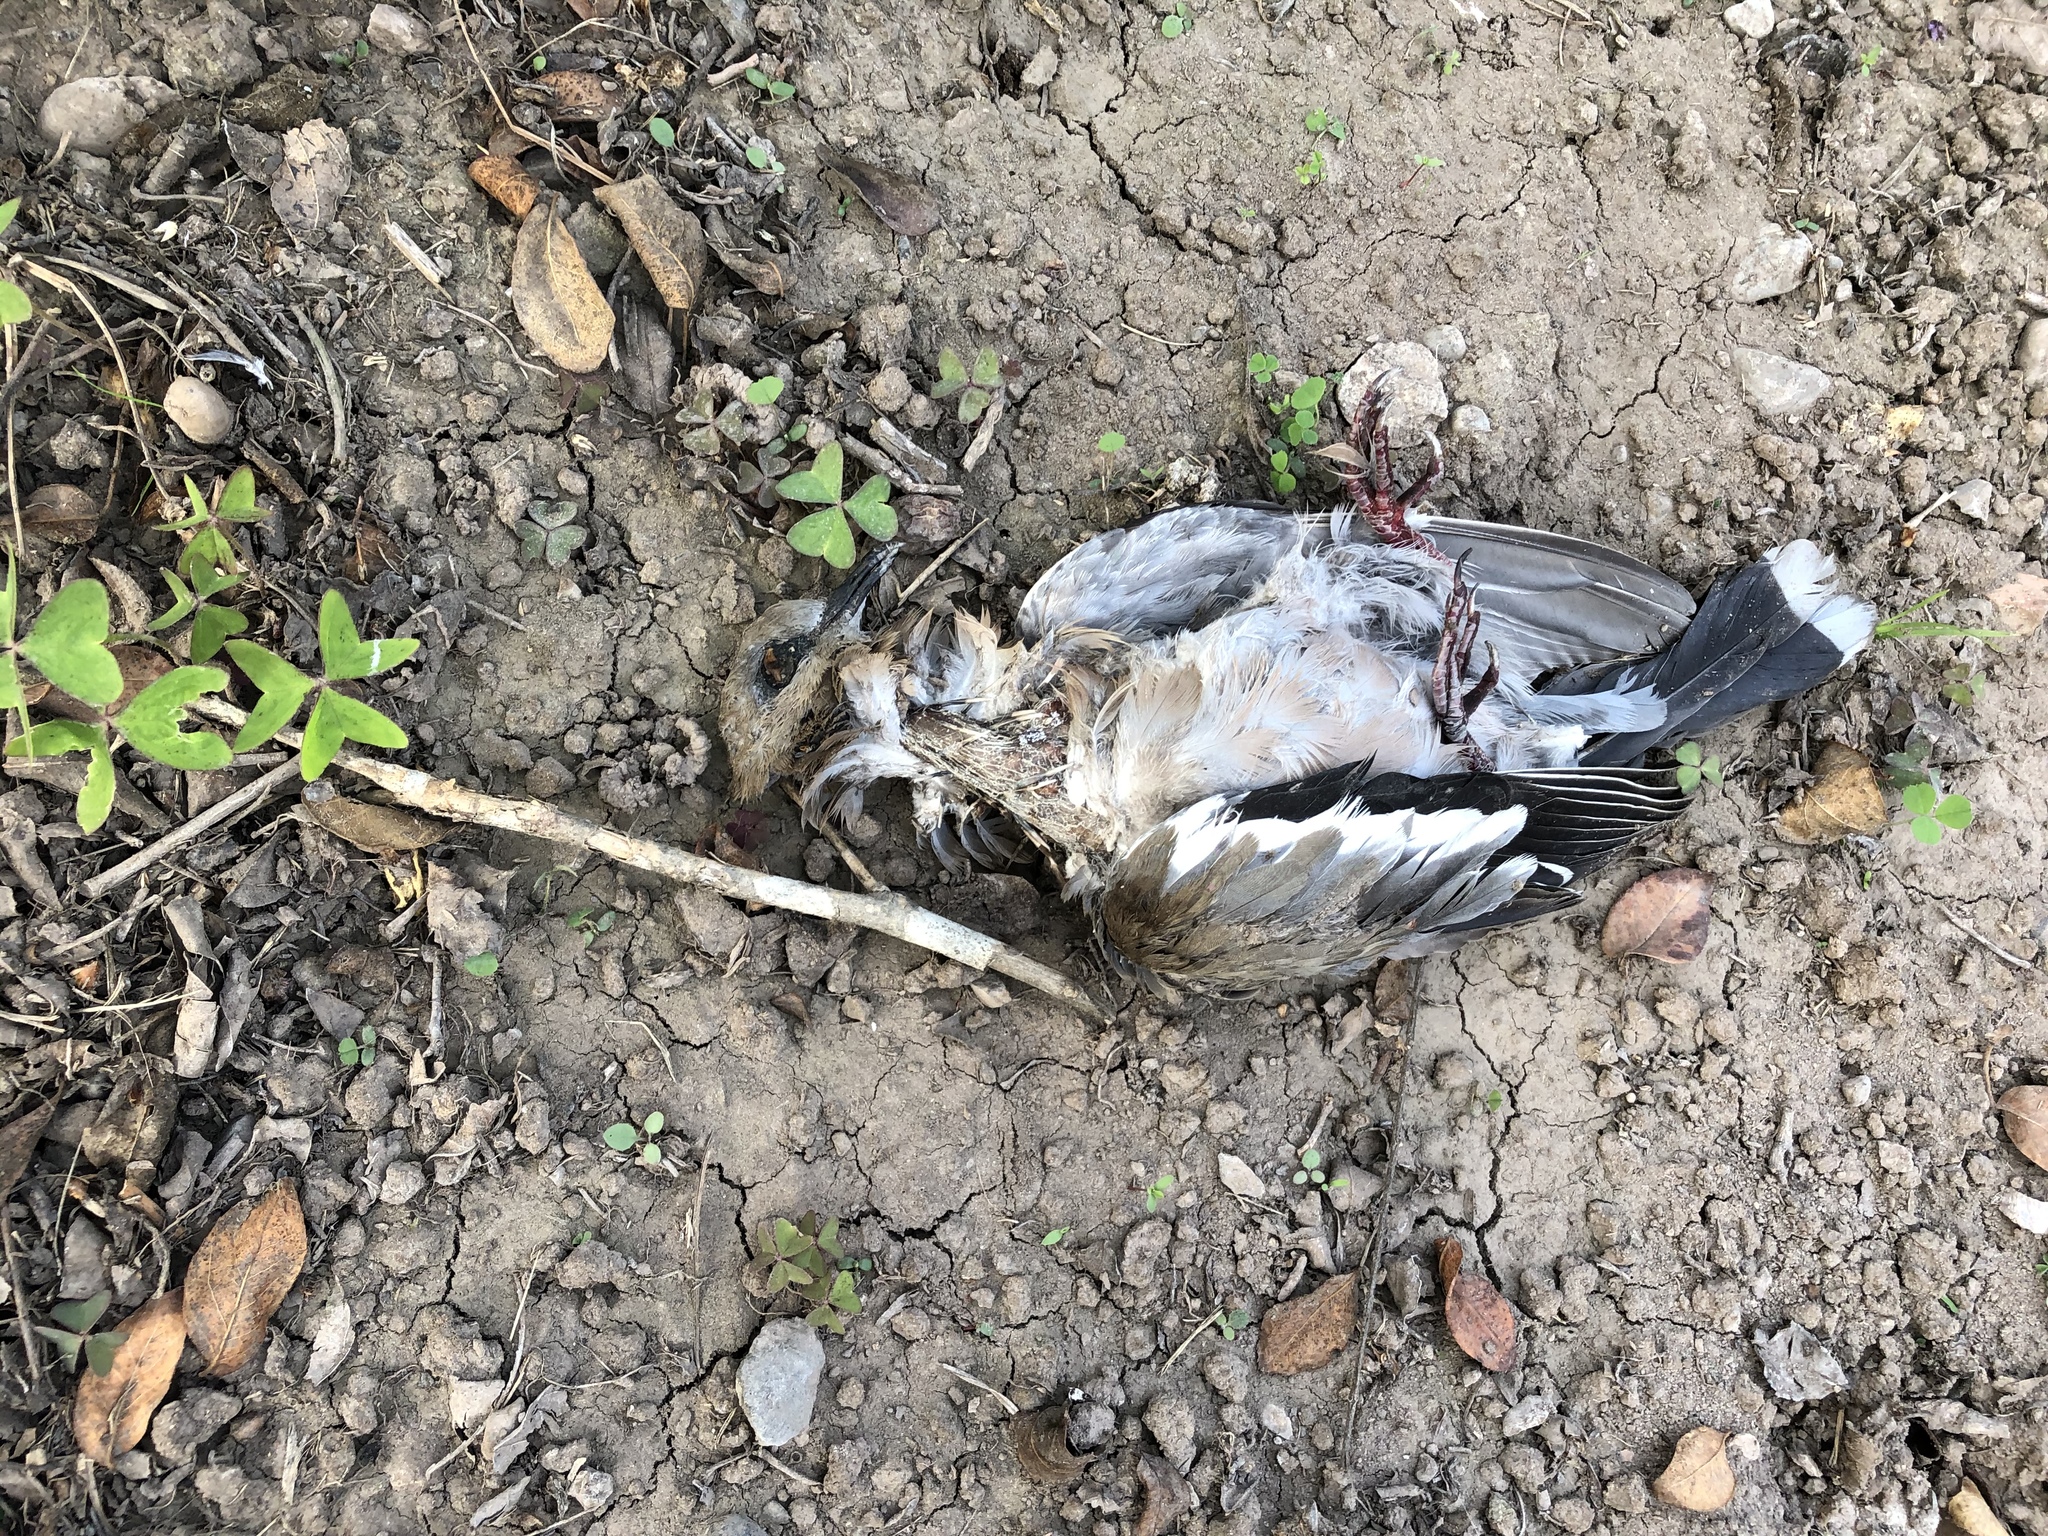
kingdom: Animalia
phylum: Chordata
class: Aves
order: Columbiformes
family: Columbidae
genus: Zenaida
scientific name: Zenaida meloda
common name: West peruvian dove
